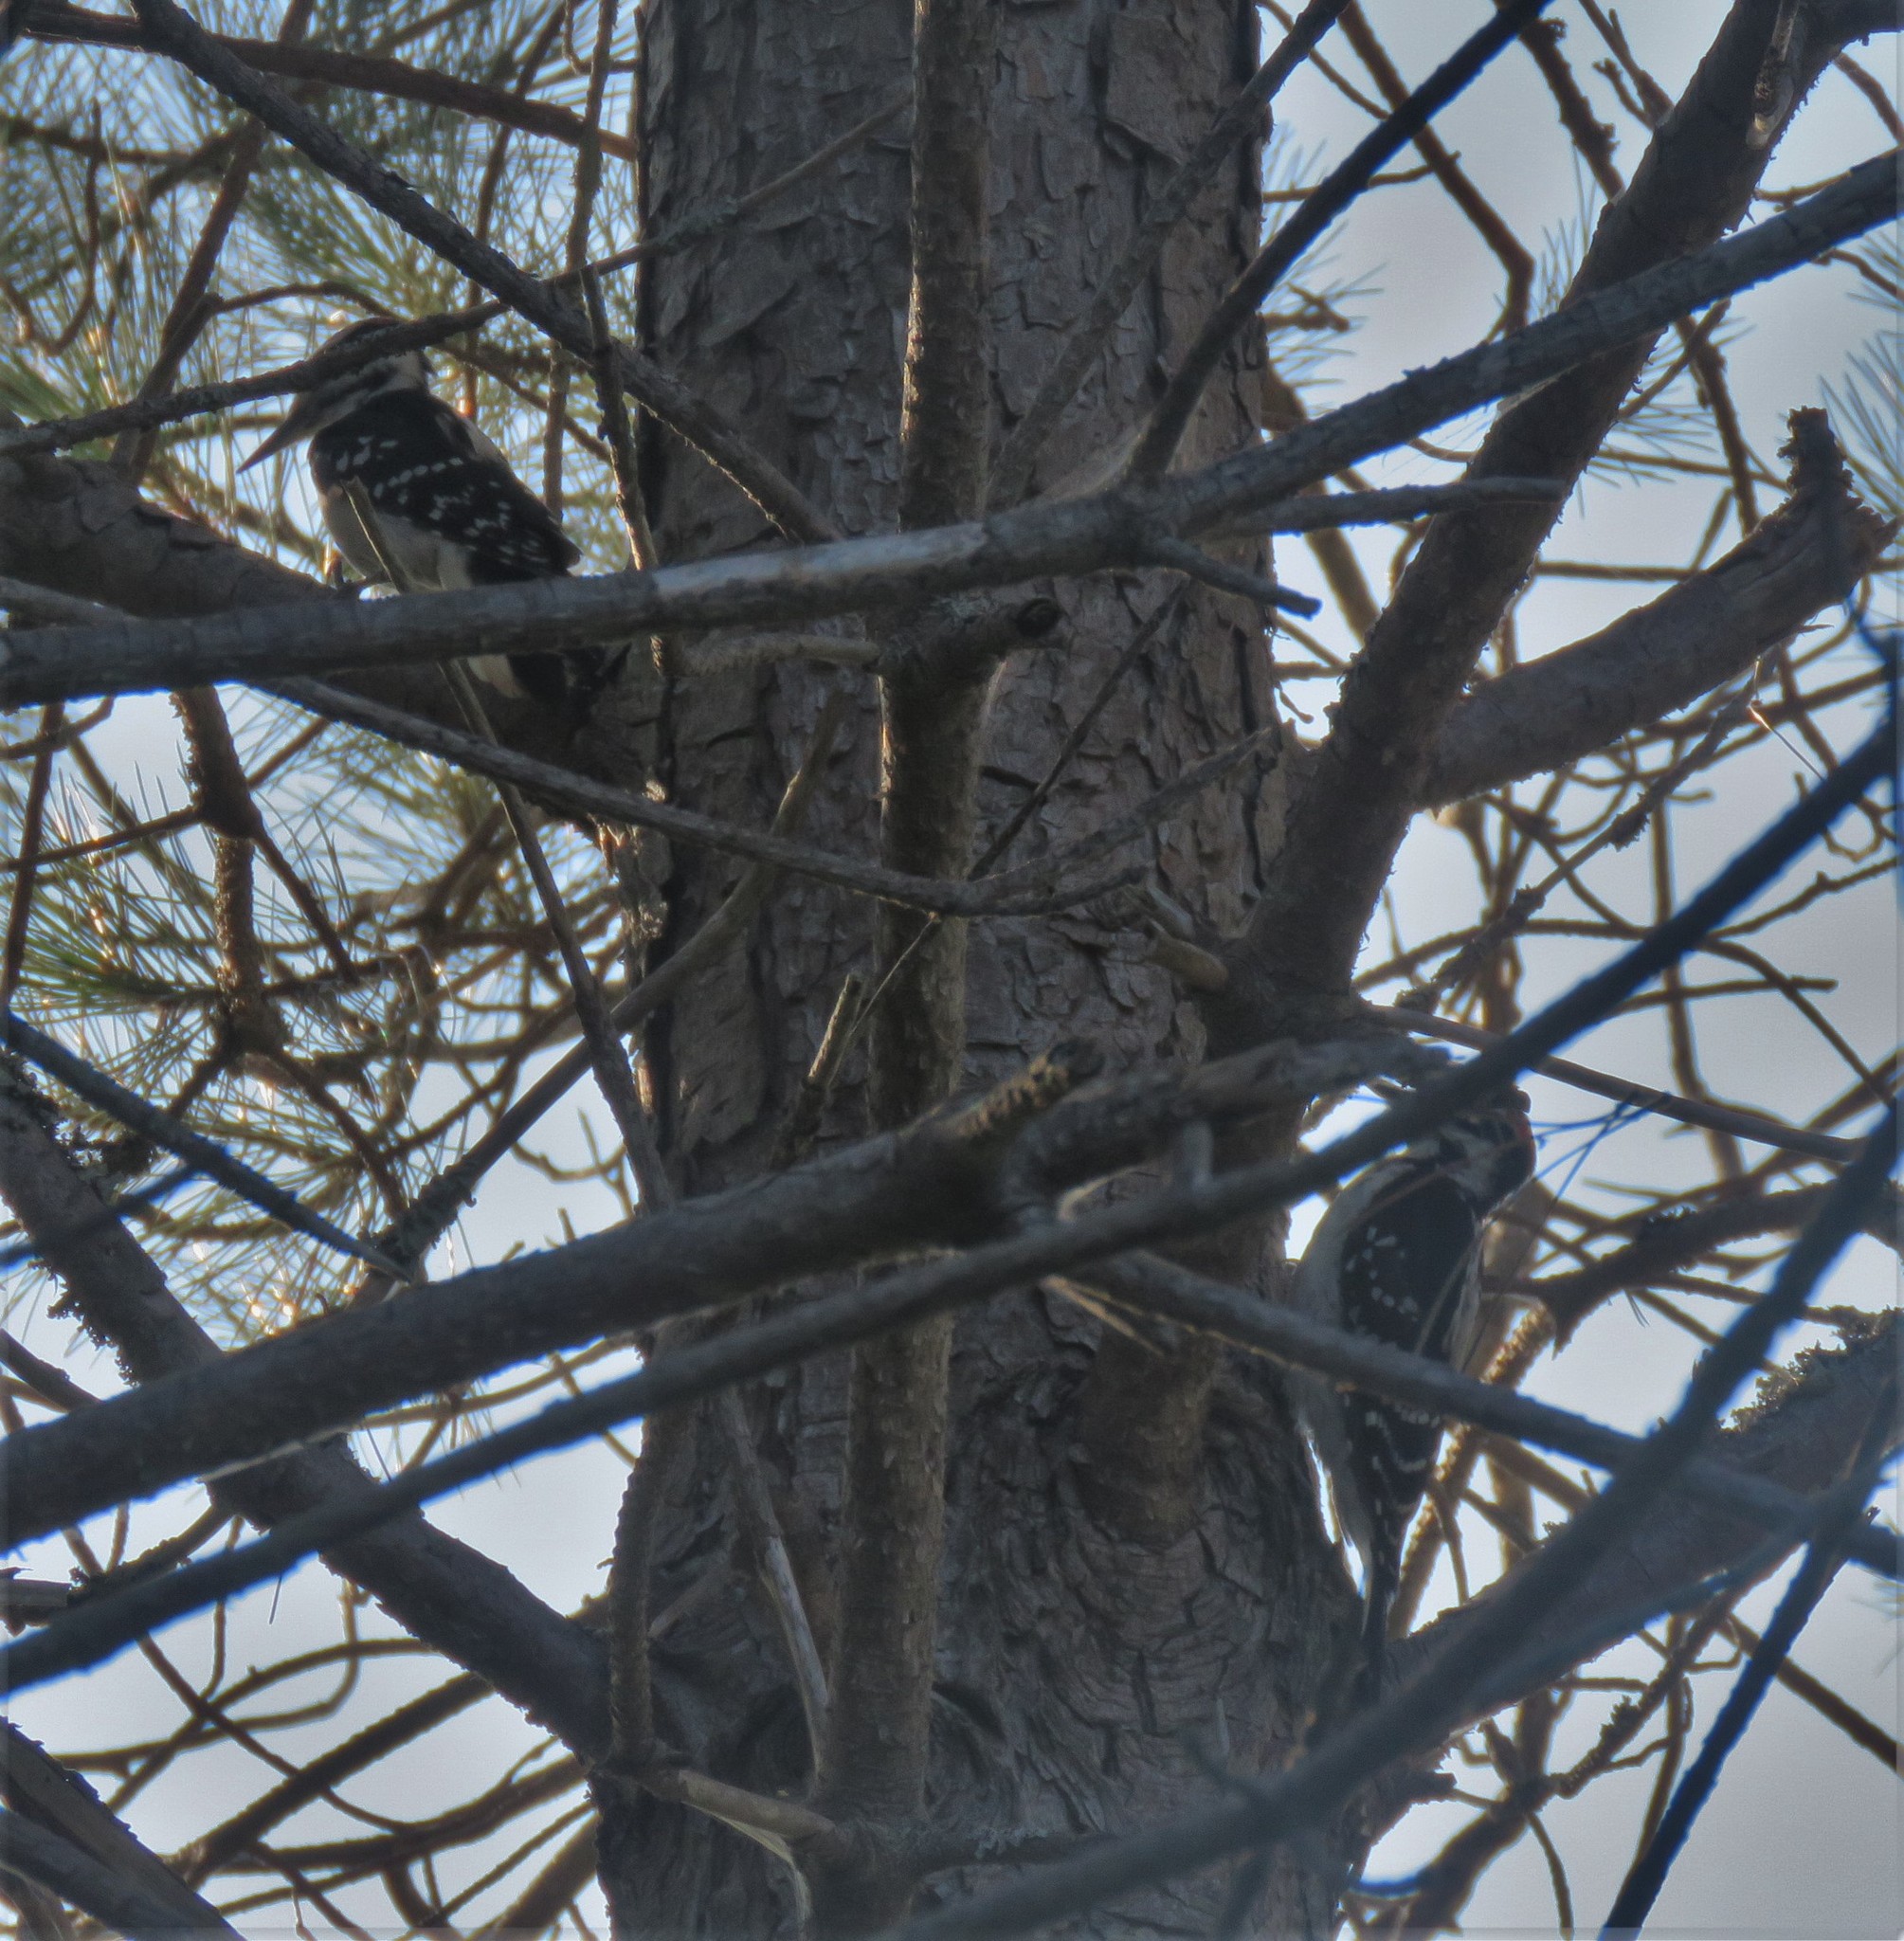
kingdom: Animalia
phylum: Chordata
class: Aves
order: Piciformes
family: Picidae
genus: Leuconotopicus
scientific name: Leuconotopicus villosus
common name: Hairy woodpecker
